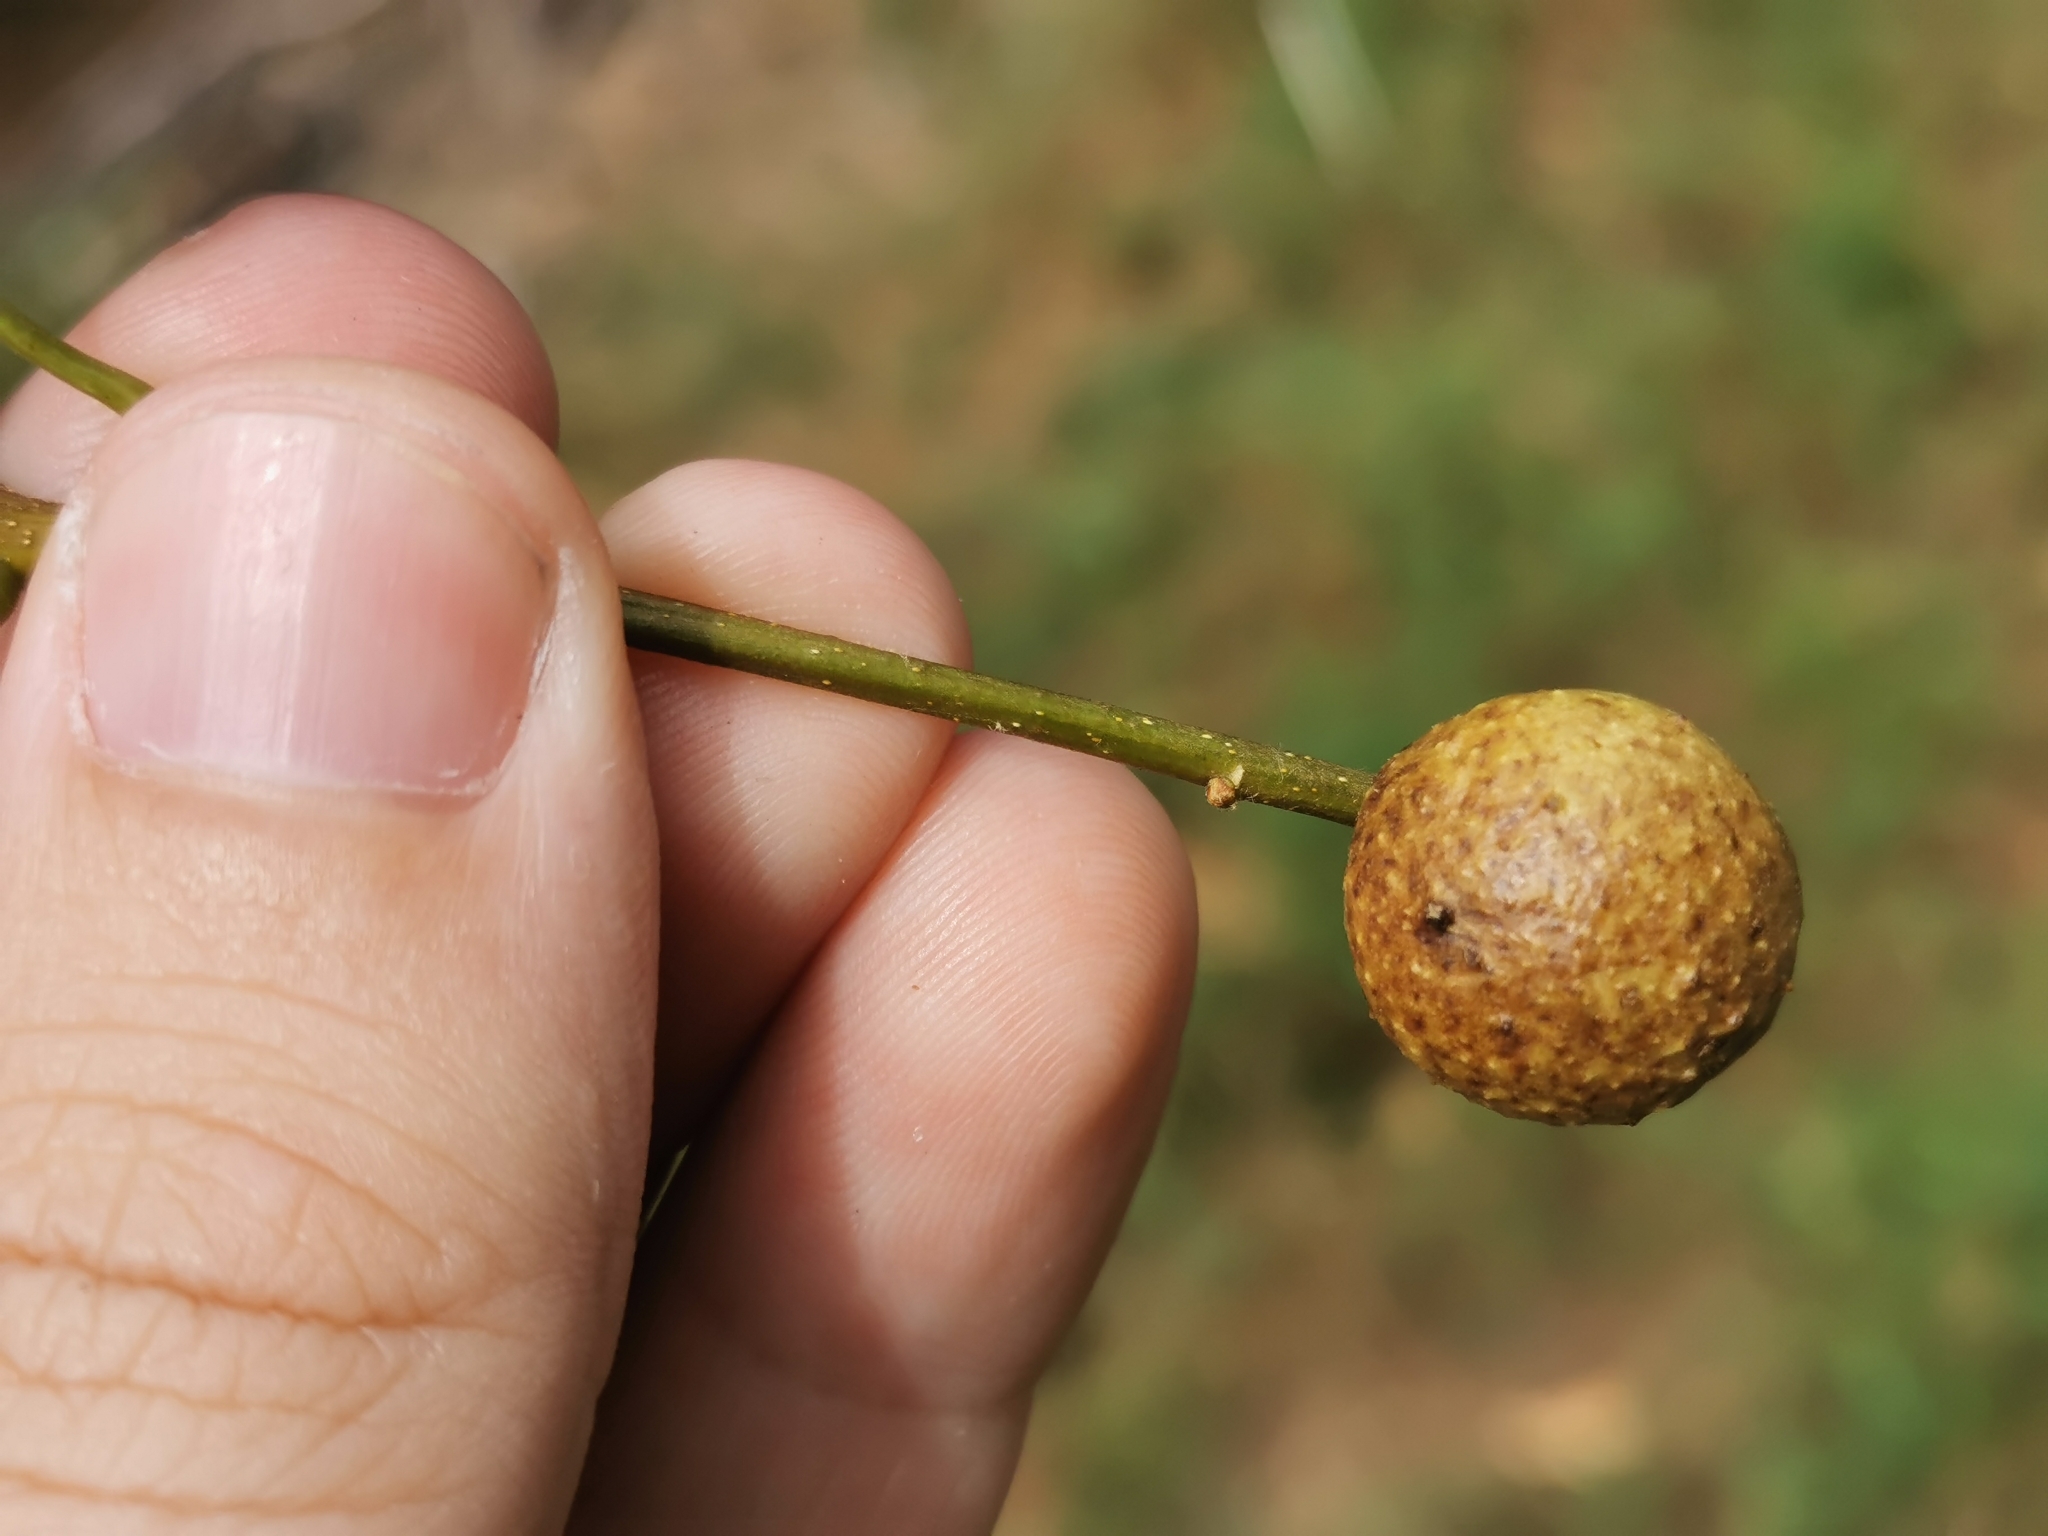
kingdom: Animalia
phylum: Arthropoda
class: Insecta
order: Hymenoptera
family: Cynipidae
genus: Disholcaspis
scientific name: Disholcaspis quercusglobulus
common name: Round bullet gall wasp
